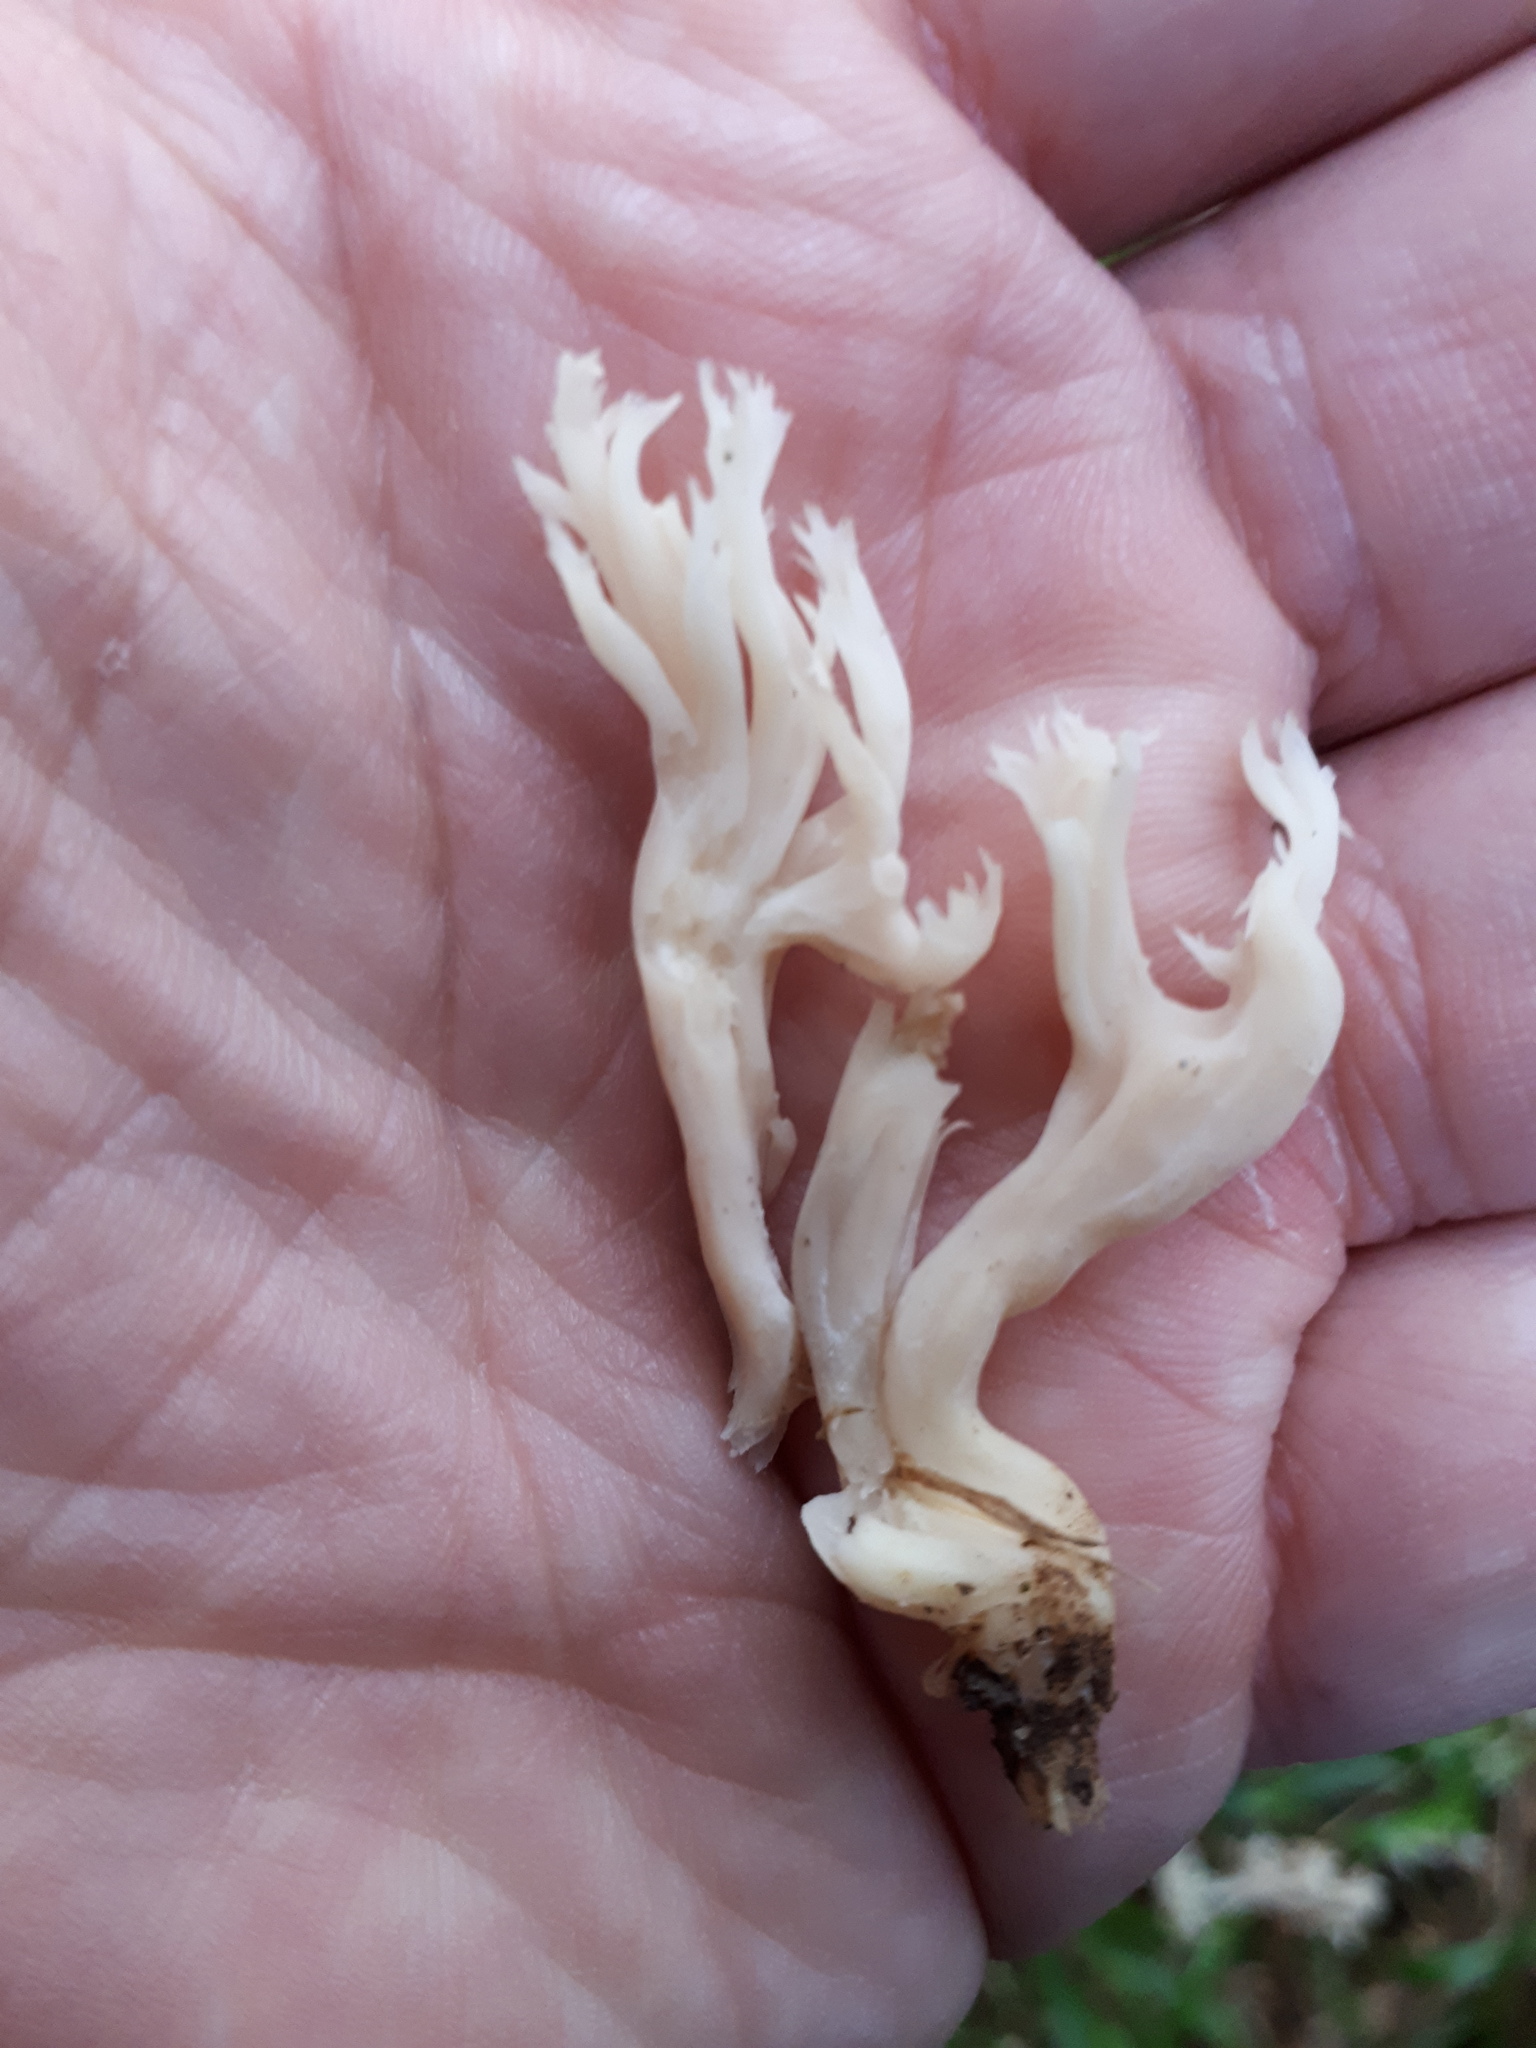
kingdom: Fungi
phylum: Basidiomycota
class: Agaricomycetes
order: Cantharellales
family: Hydnaceae
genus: Clavulina
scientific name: Clavulina coralloides
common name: Crested coral
